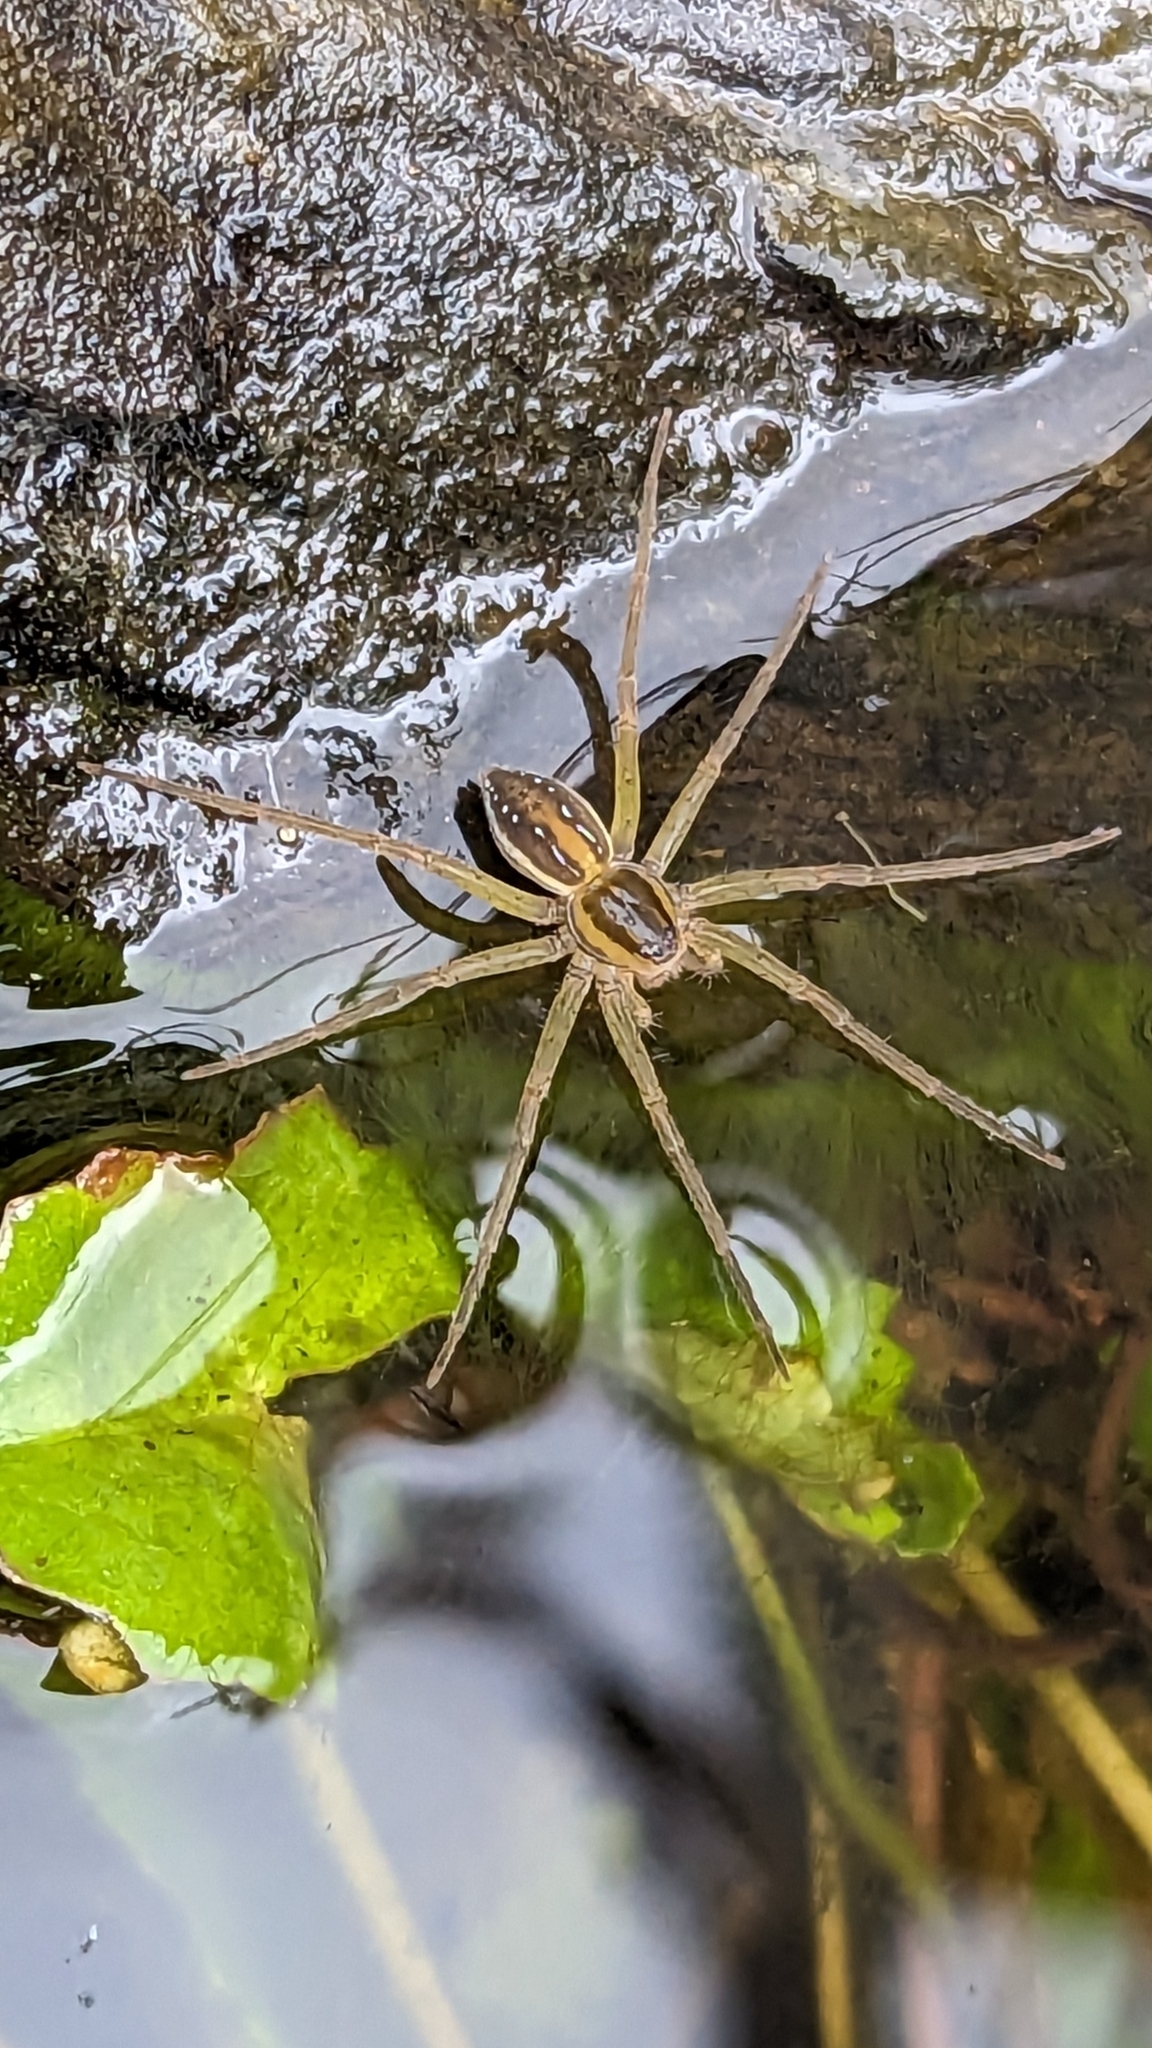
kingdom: Animalia
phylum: Arthropoda
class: Arachnida
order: Araneae
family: Pisauridae
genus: Dolomedes
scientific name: Dolomedes facetus
